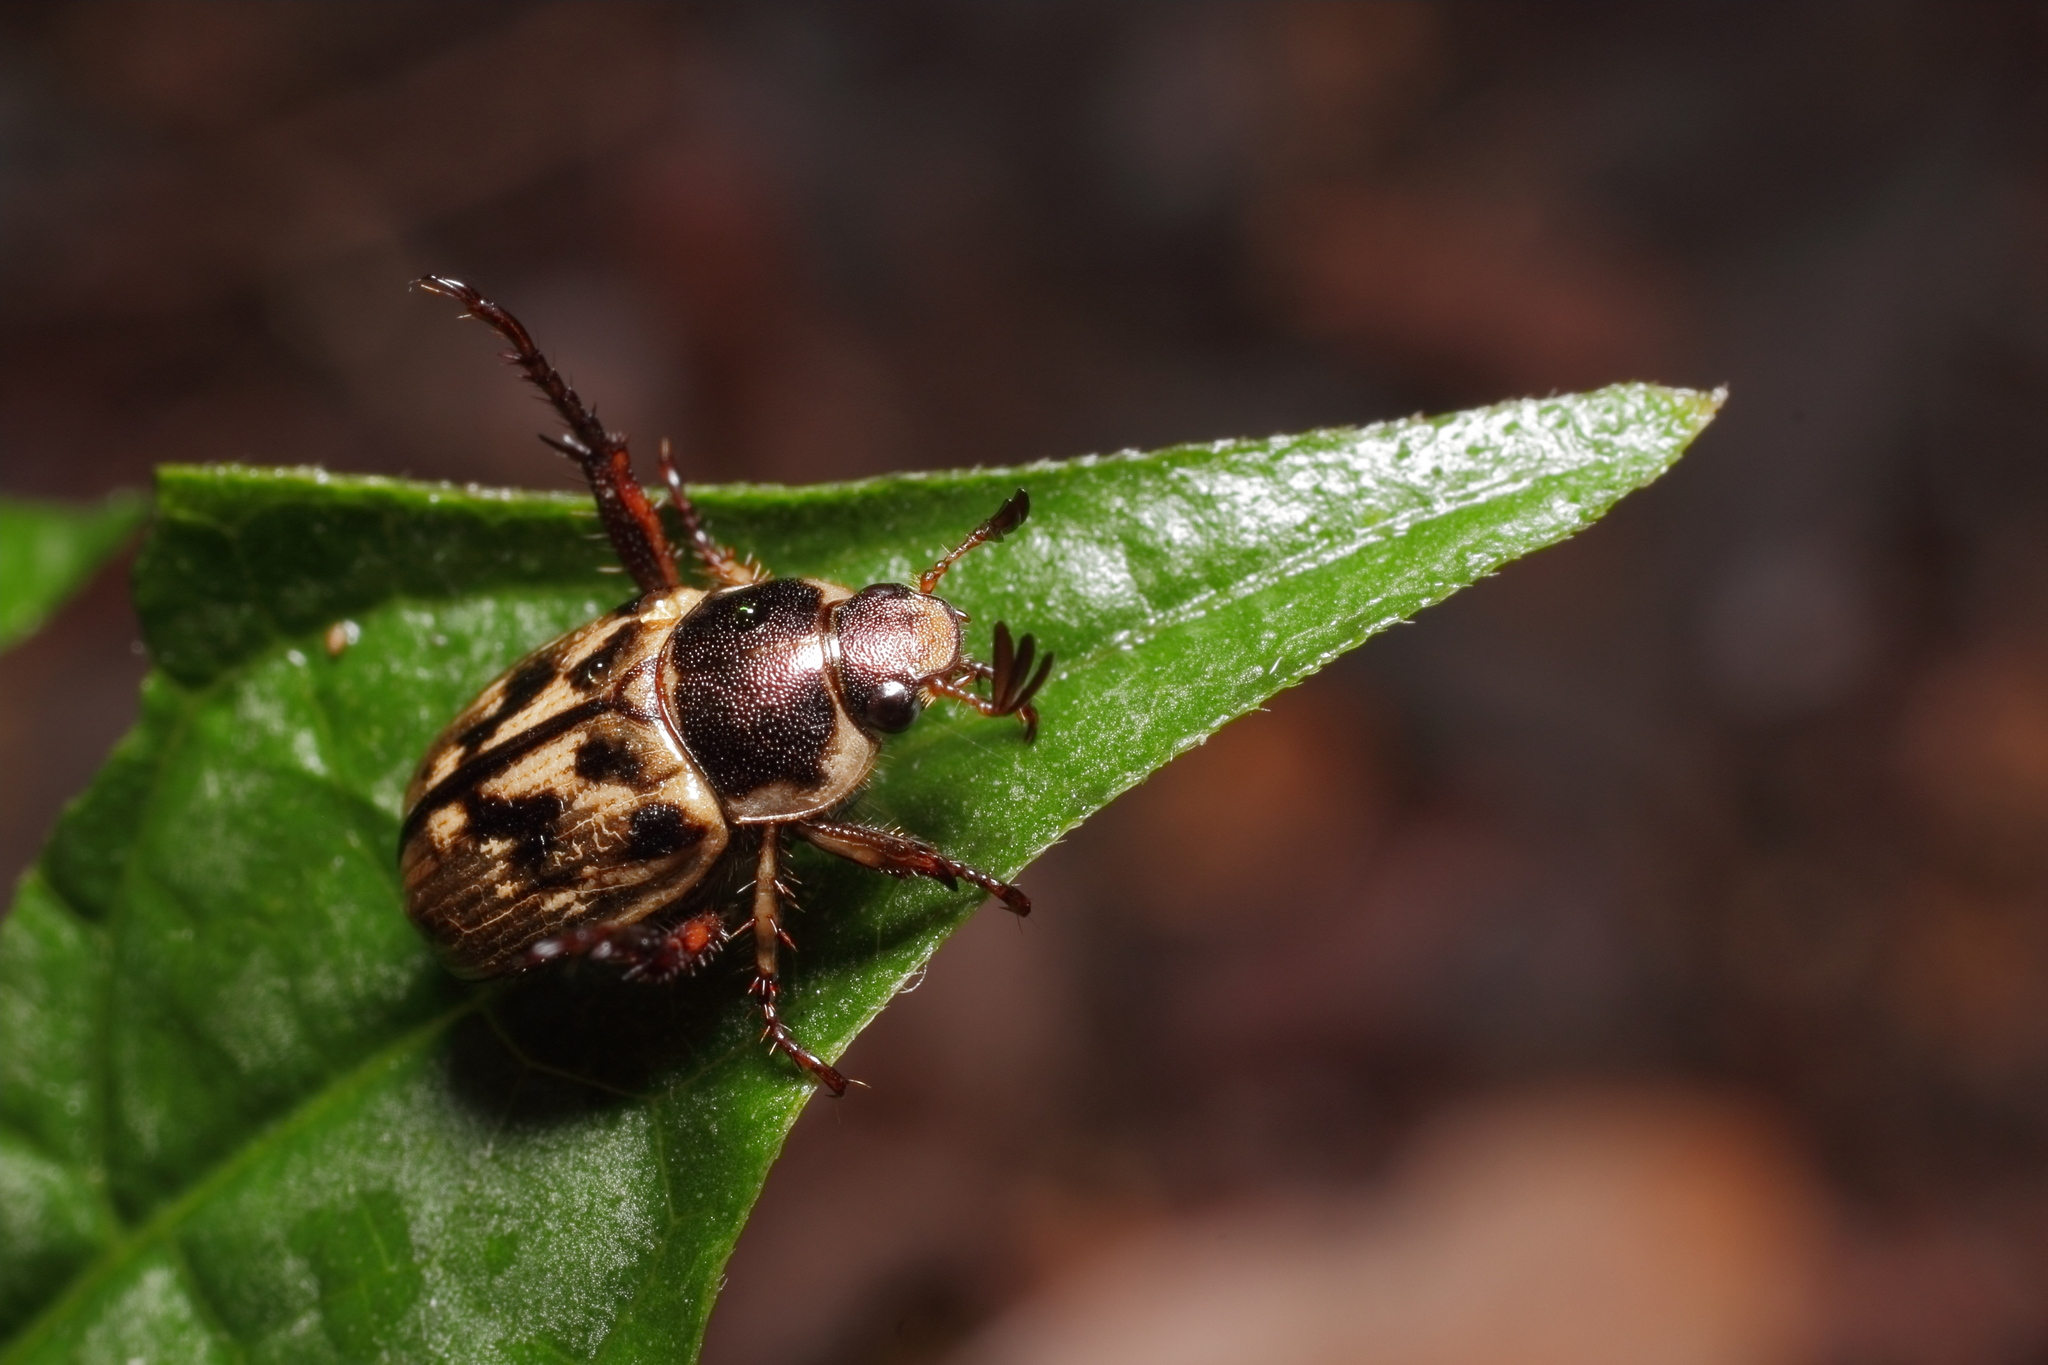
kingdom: Animalia
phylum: Arthropoda
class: Insecta
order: Coleoptera
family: Scarabaeidae
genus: Exomala
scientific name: Exomala orientalis
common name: Oriental beetle
